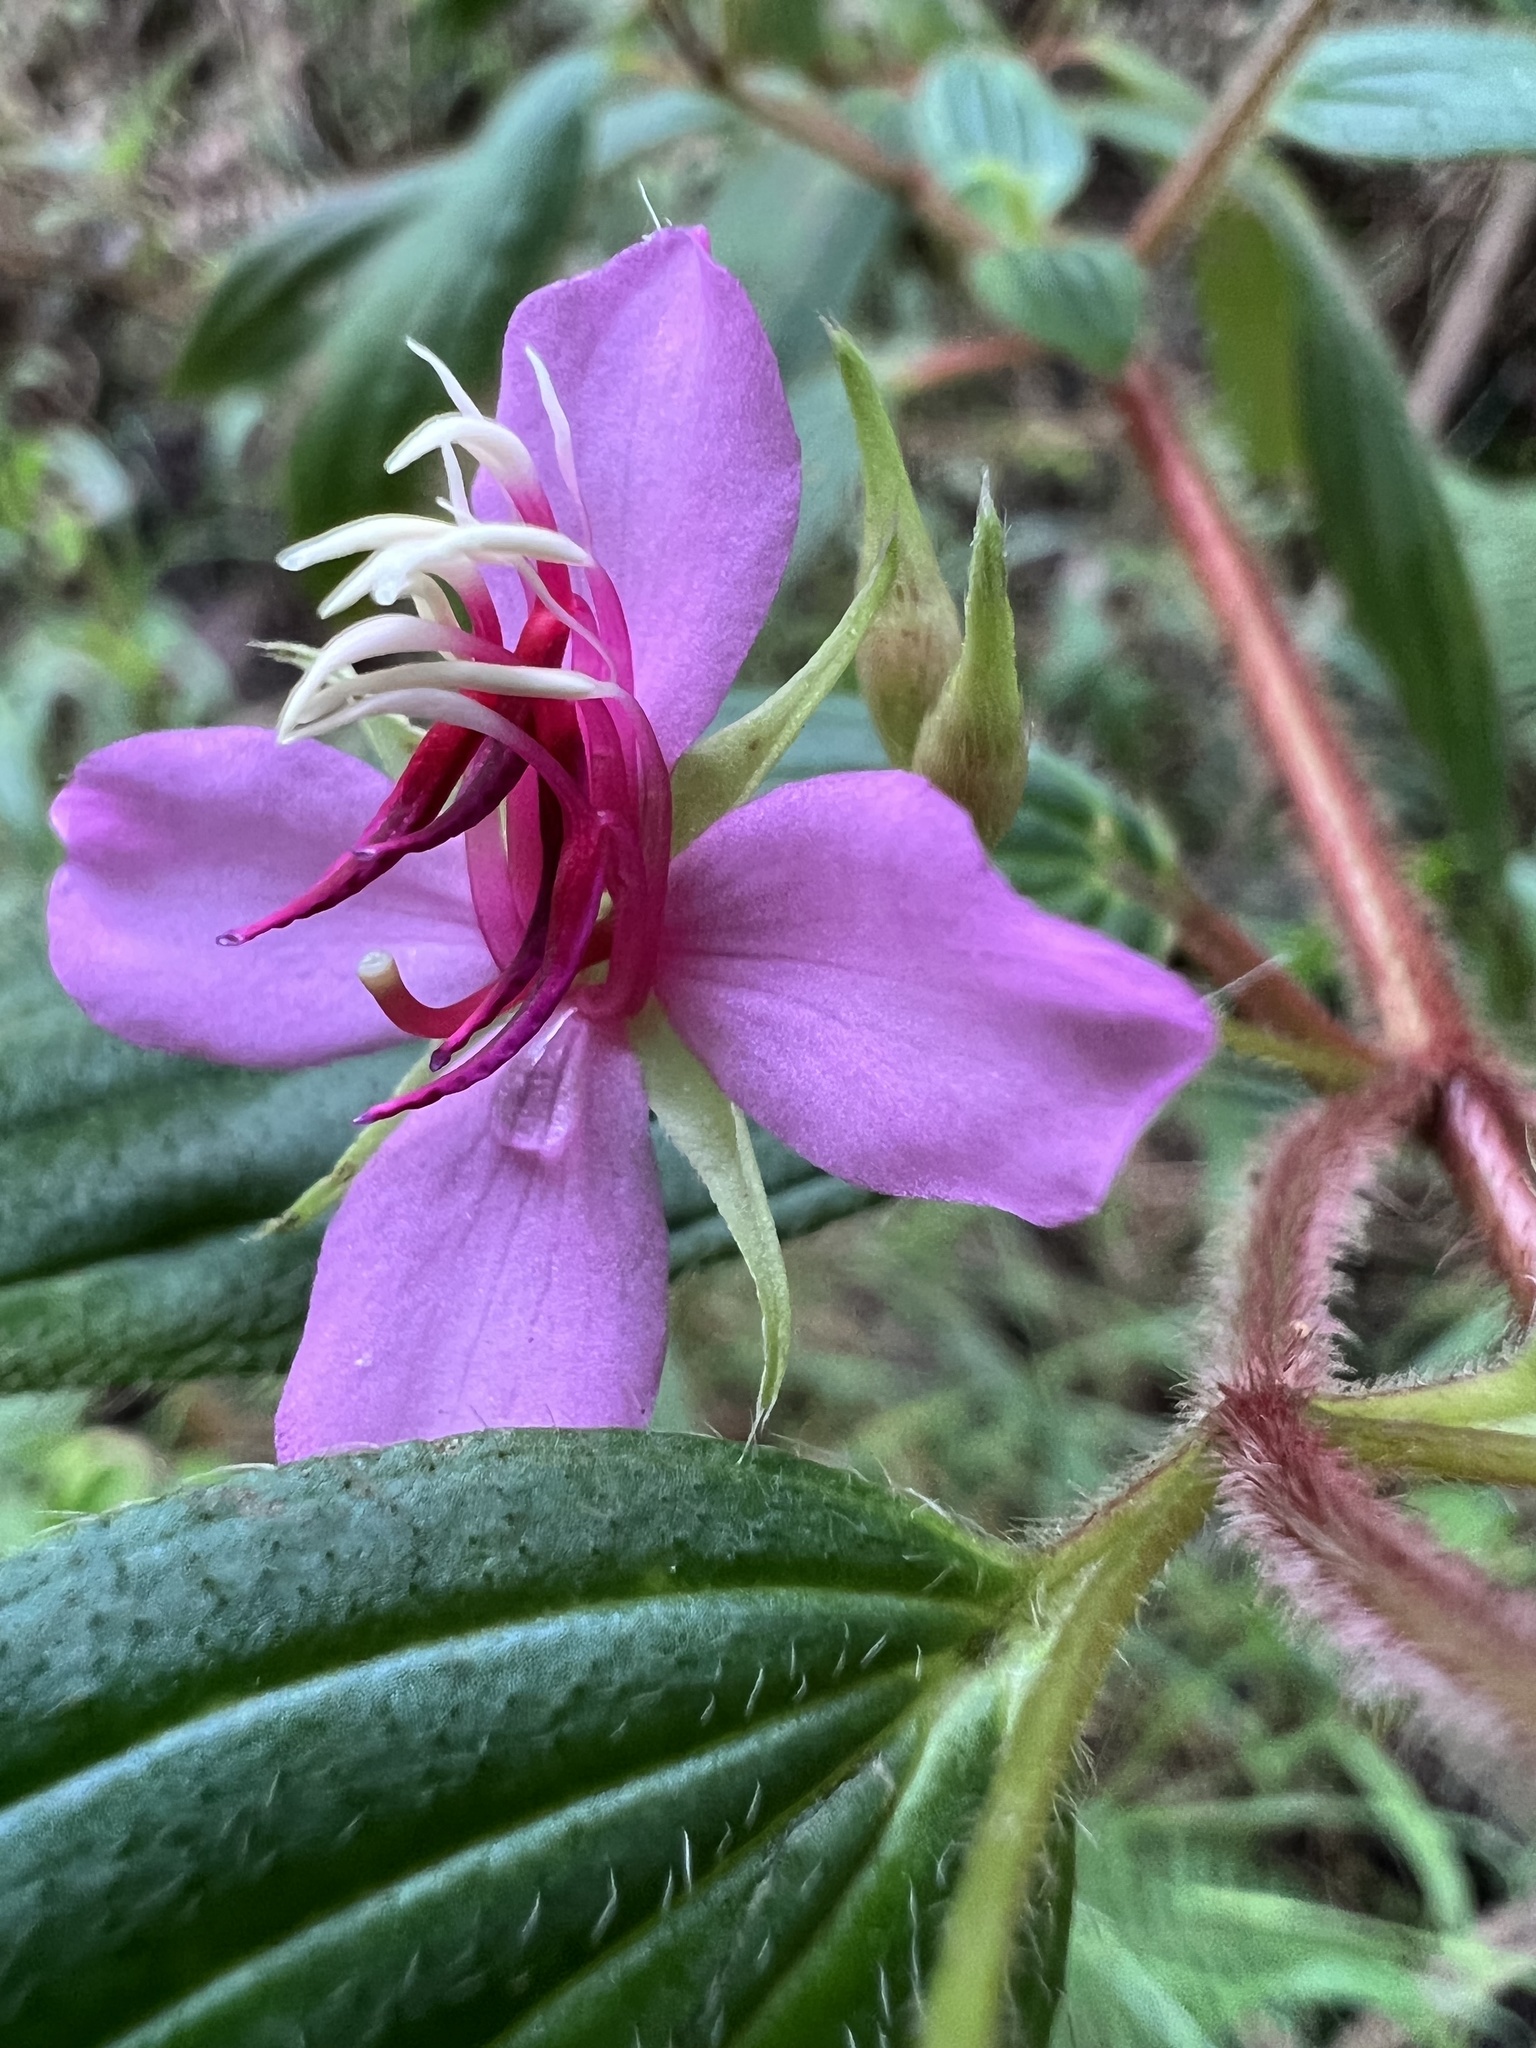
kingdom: Plantae
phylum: Tracheophyta
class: Magnoliopsida
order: Myrtales
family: Melastomataceae
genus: Monochaetum
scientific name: Monochaetum hartwegianum
